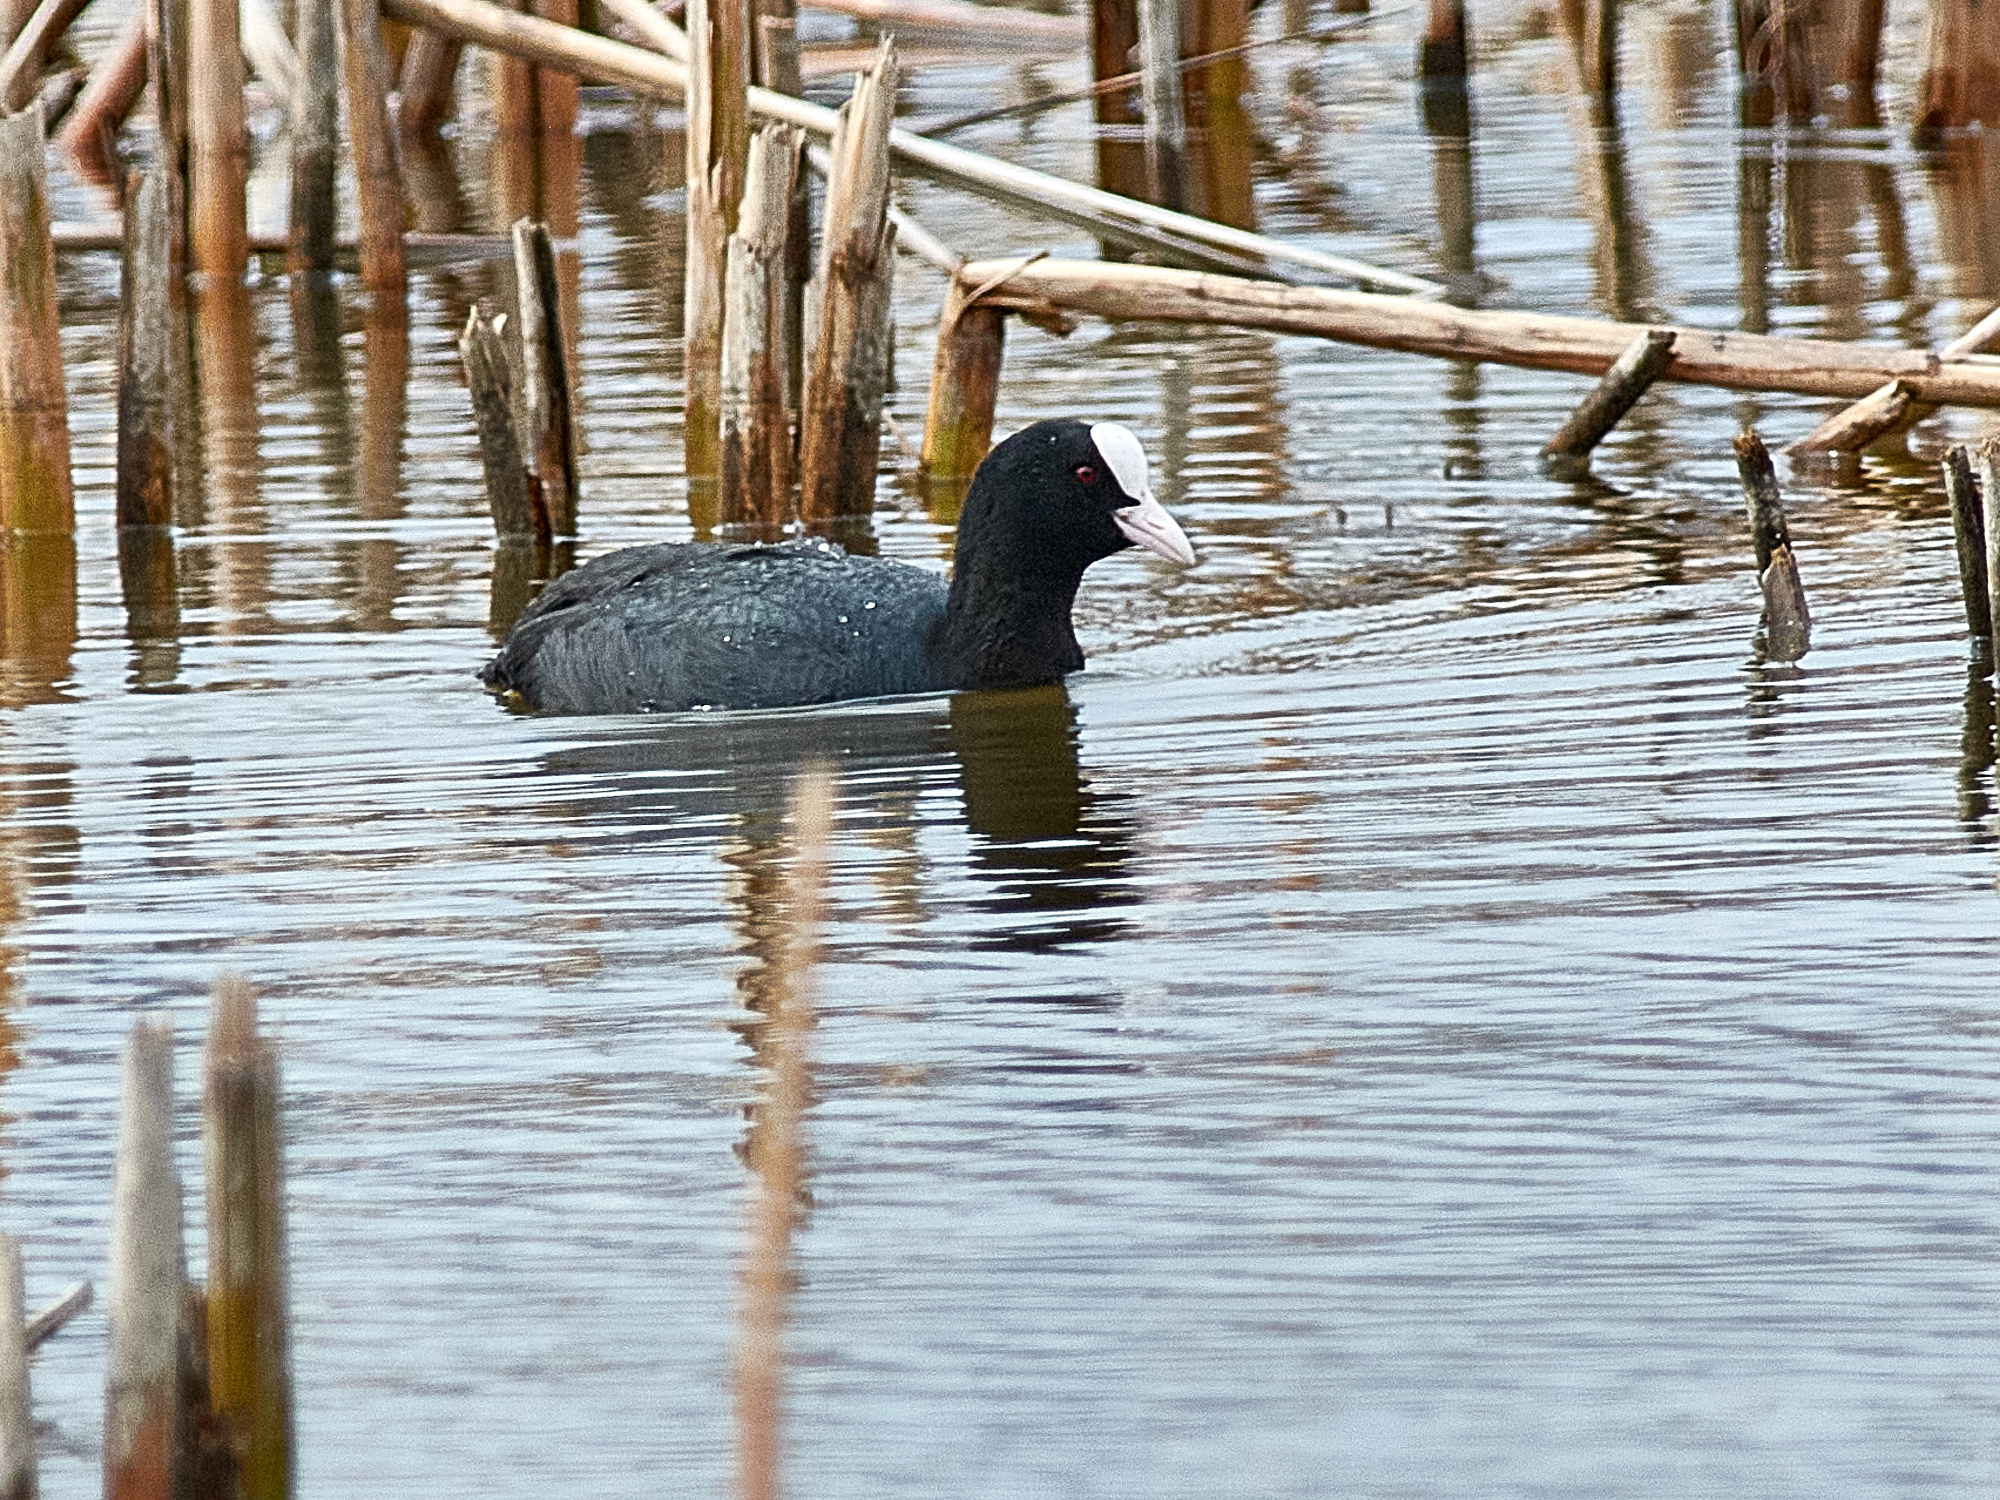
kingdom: Animalia
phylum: Chordata
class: Aves
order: Gruiformes
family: Rallidae
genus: Fulica
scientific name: Fulica atra
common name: Eurasian coot
